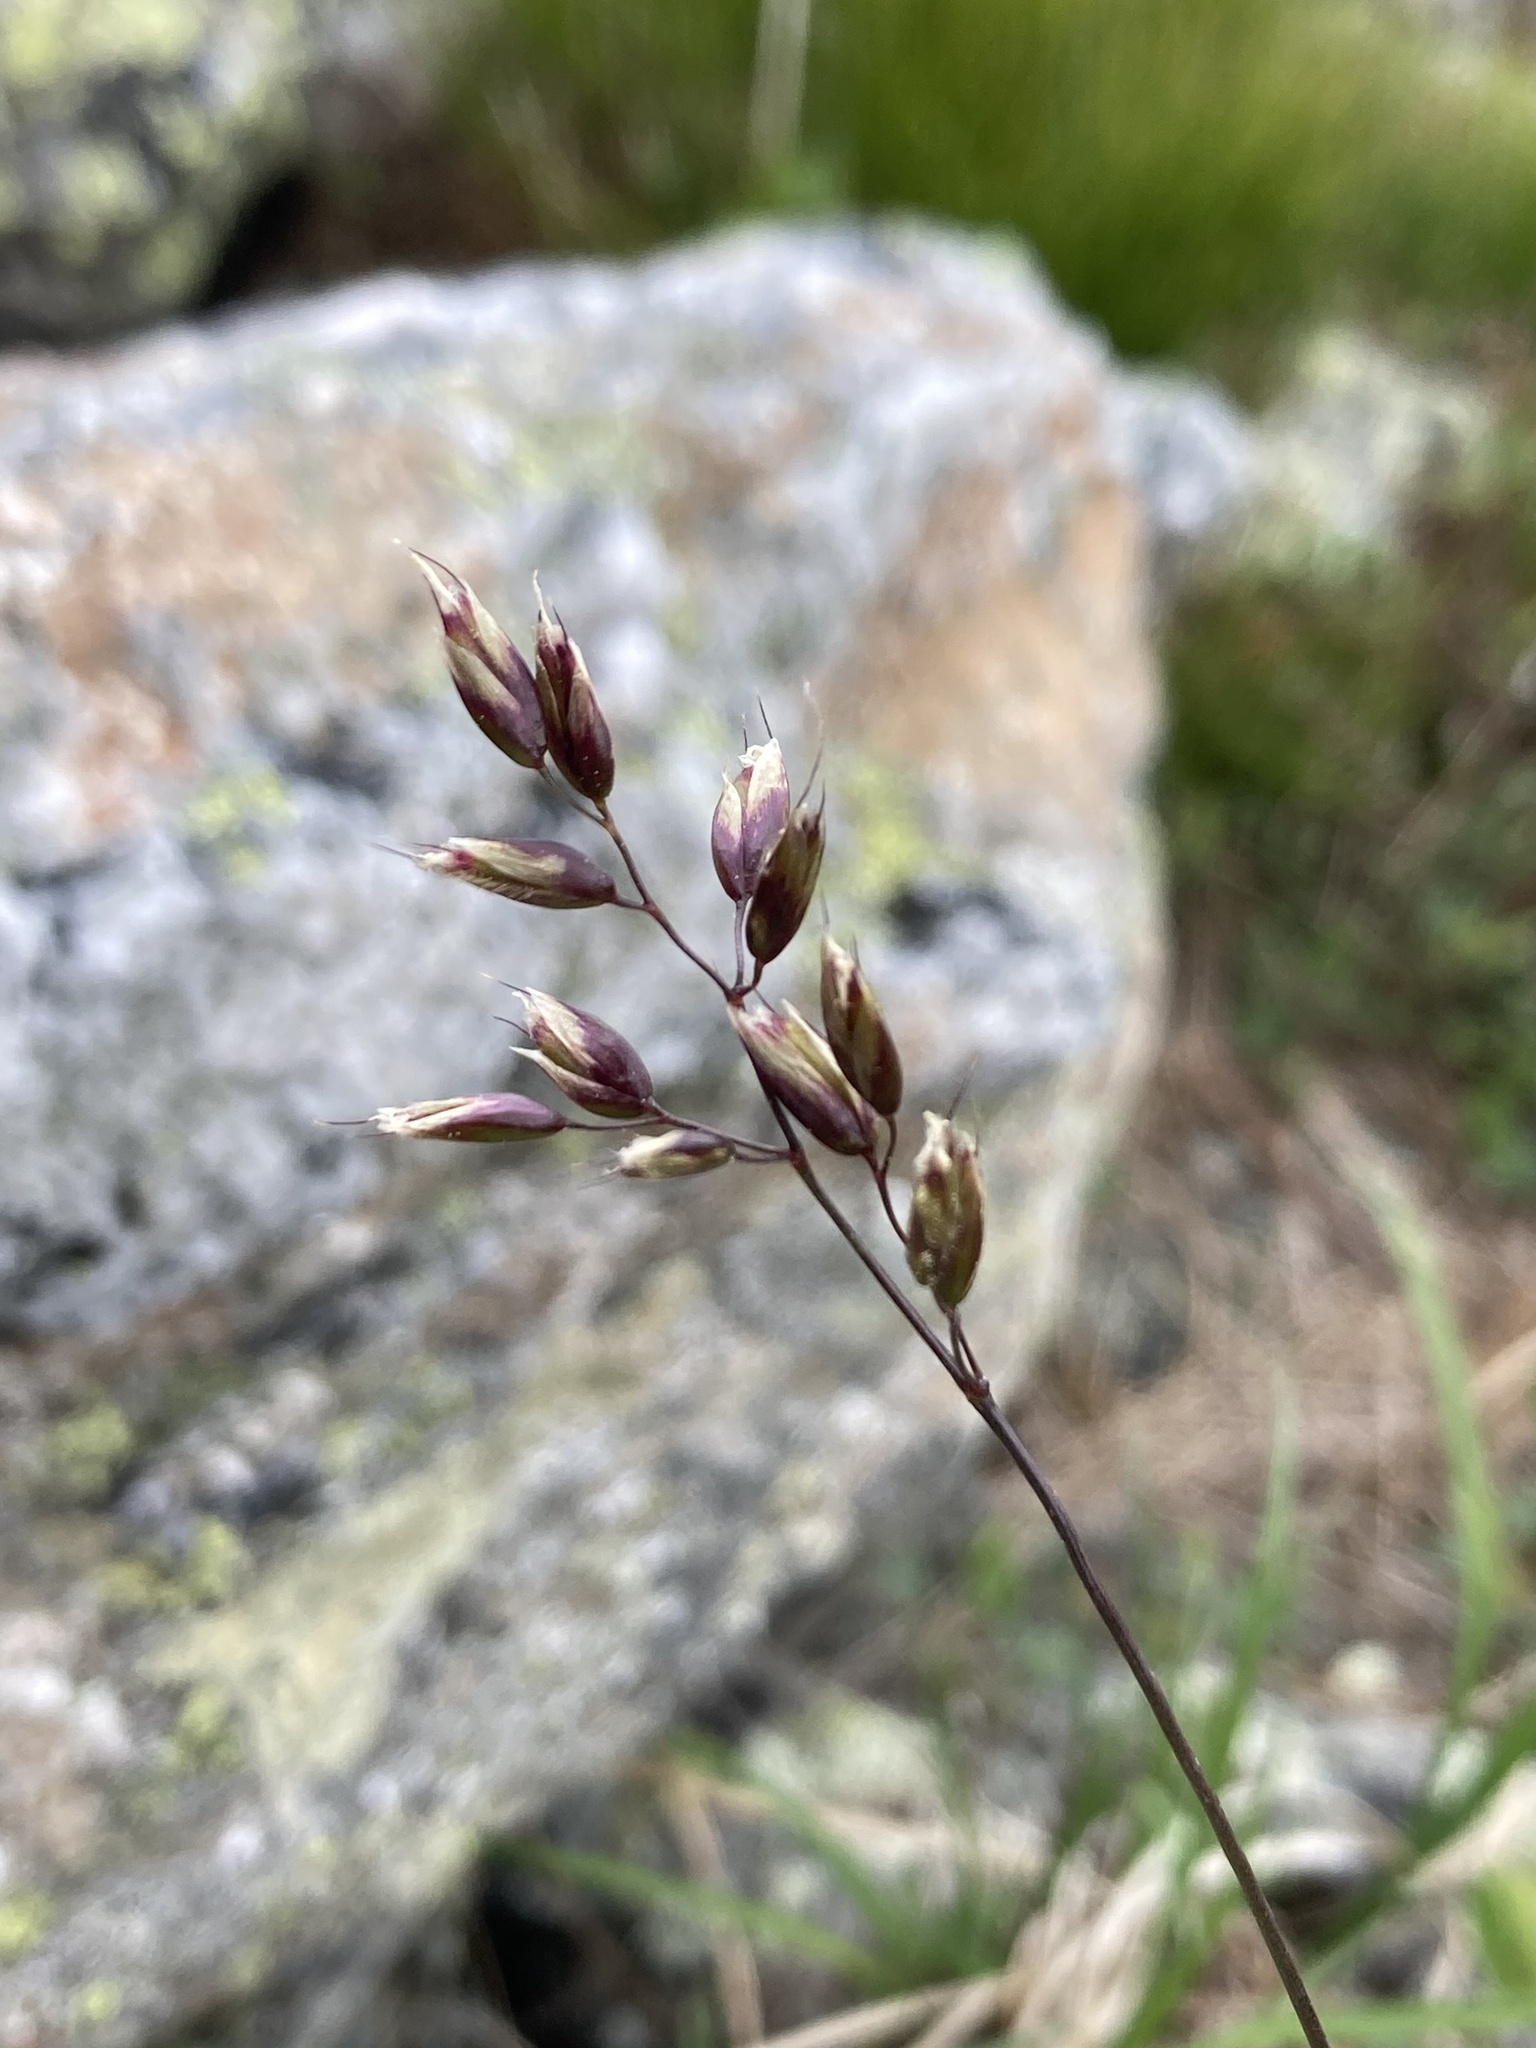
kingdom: Plantae
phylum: Tracheophyta
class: Liliopsida
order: Poales
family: Poaceae
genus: Anthoxanthum
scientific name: Anthoxanthum monticola
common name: Alpine sweetgrass
